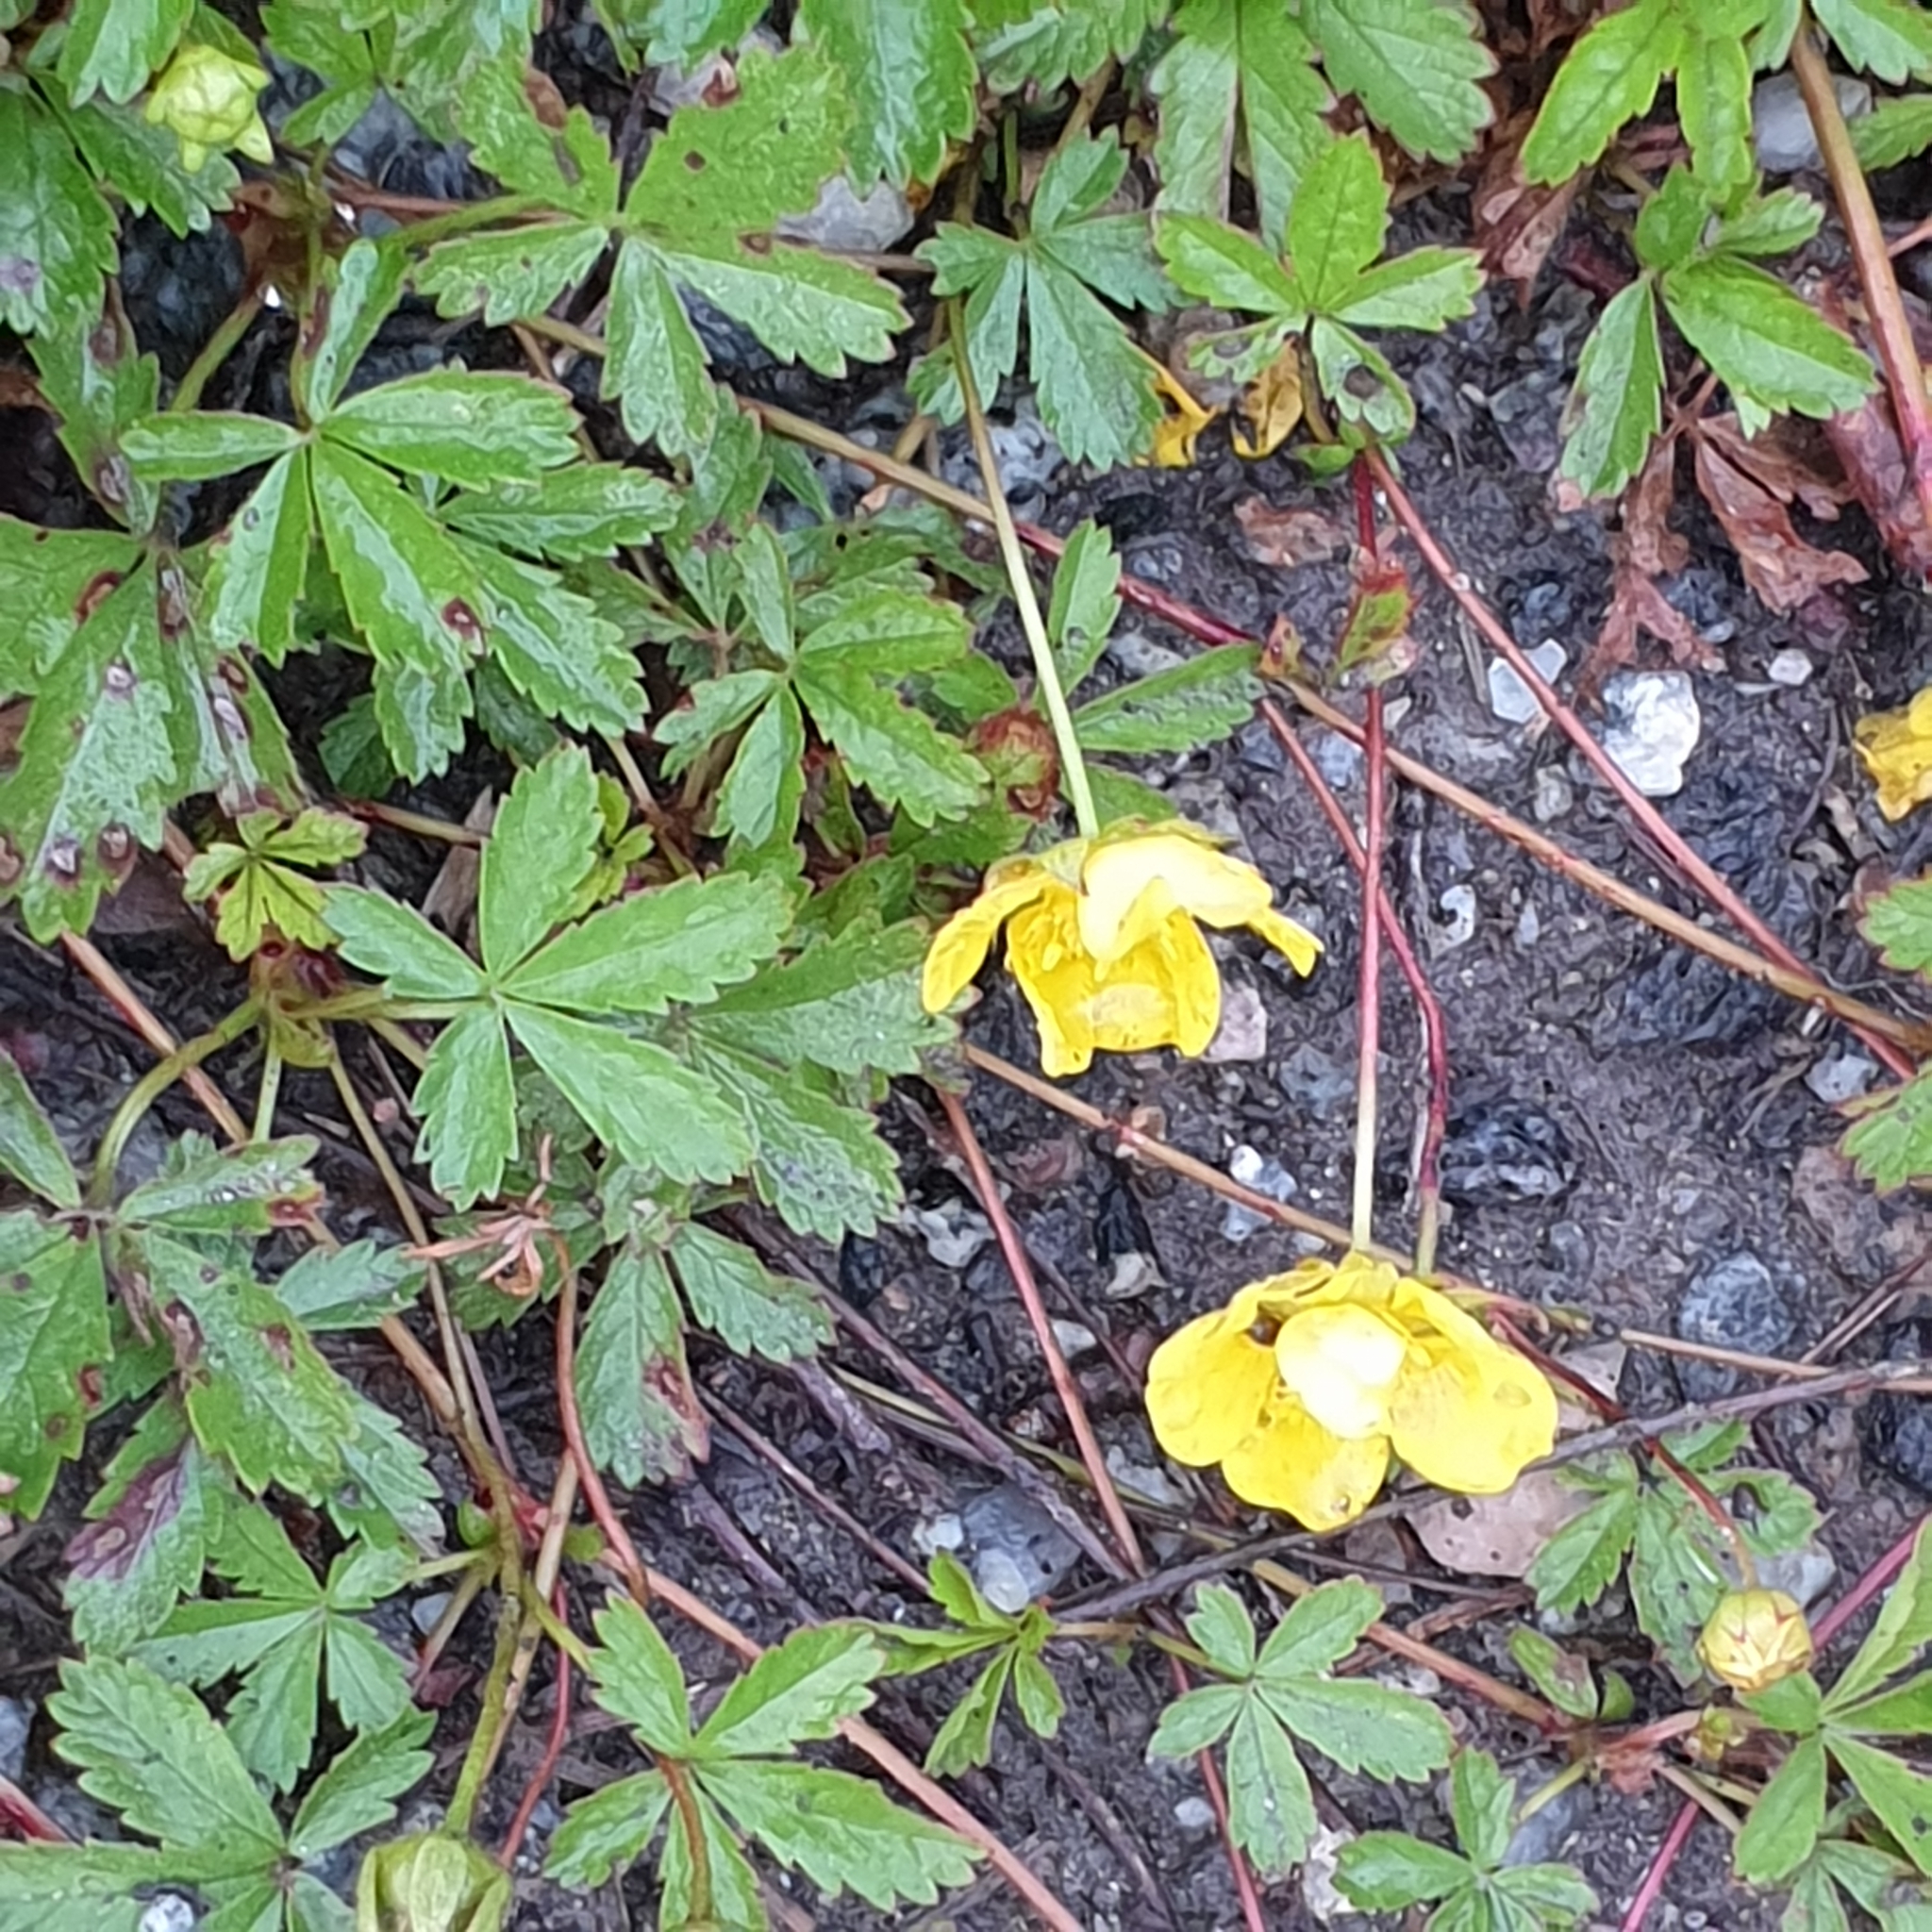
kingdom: Plantae
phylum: Tracheophyta
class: Magnoliopsida
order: Rosales
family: Rosaceae
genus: Potentilla
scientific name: Potentilla reptans
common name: Creeping cinquefoil
